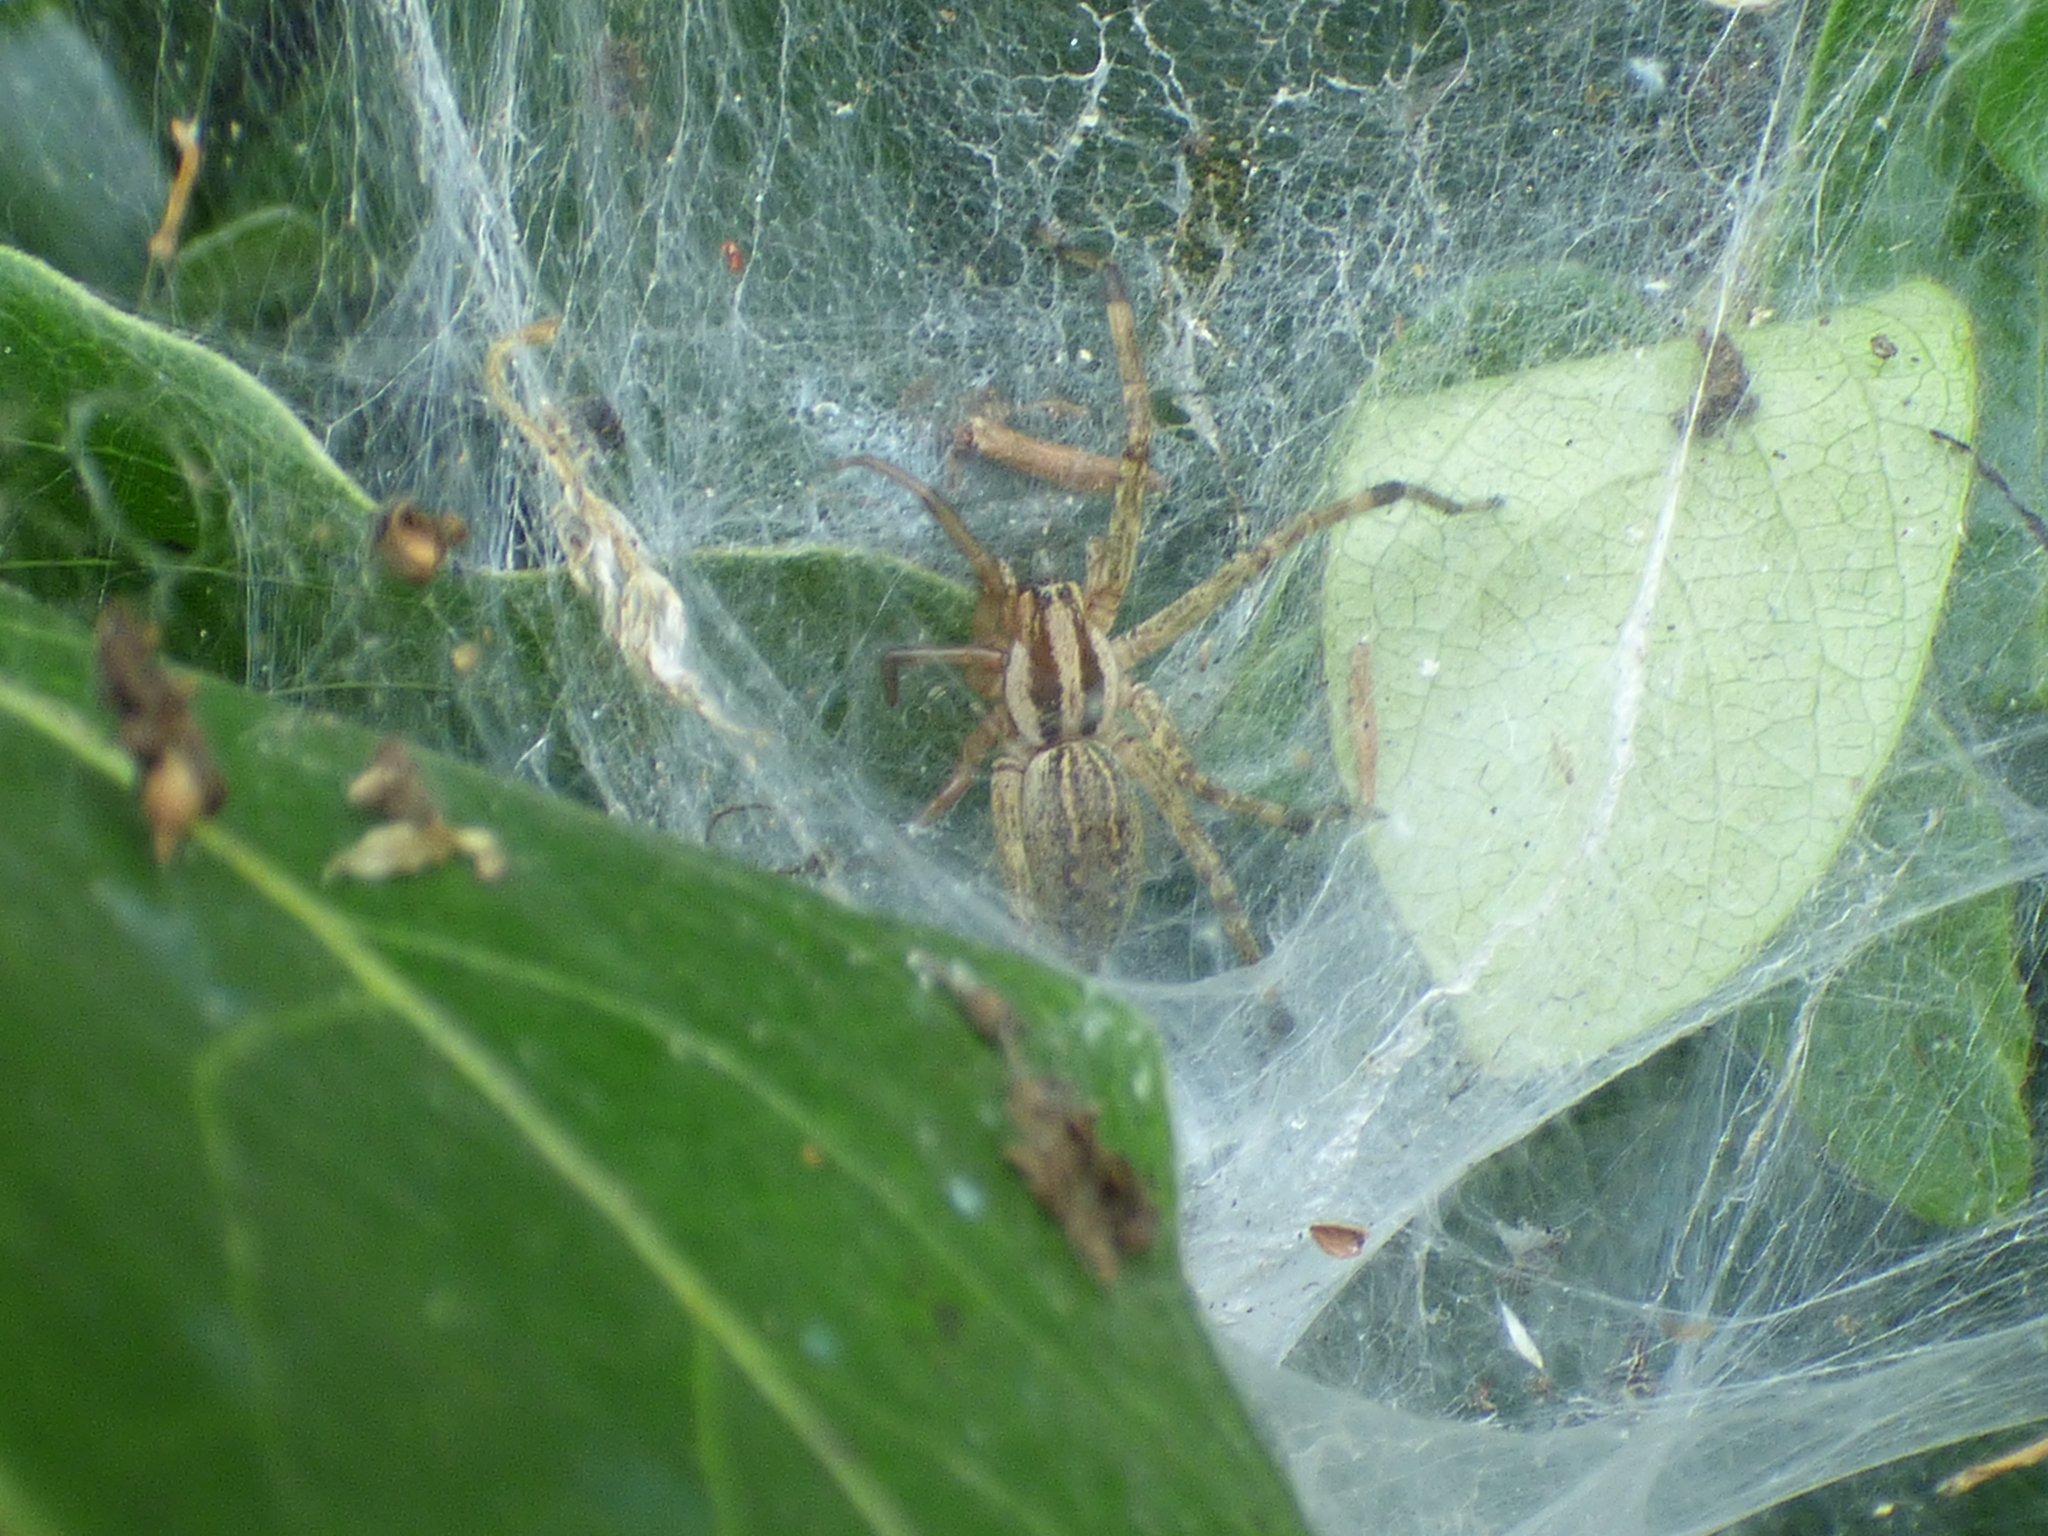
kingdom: Animalia
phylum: Arthropoda
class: Arachnida
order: Araneae
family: Agelenidae
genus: Agelenopsis
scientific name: Agelenopsis
